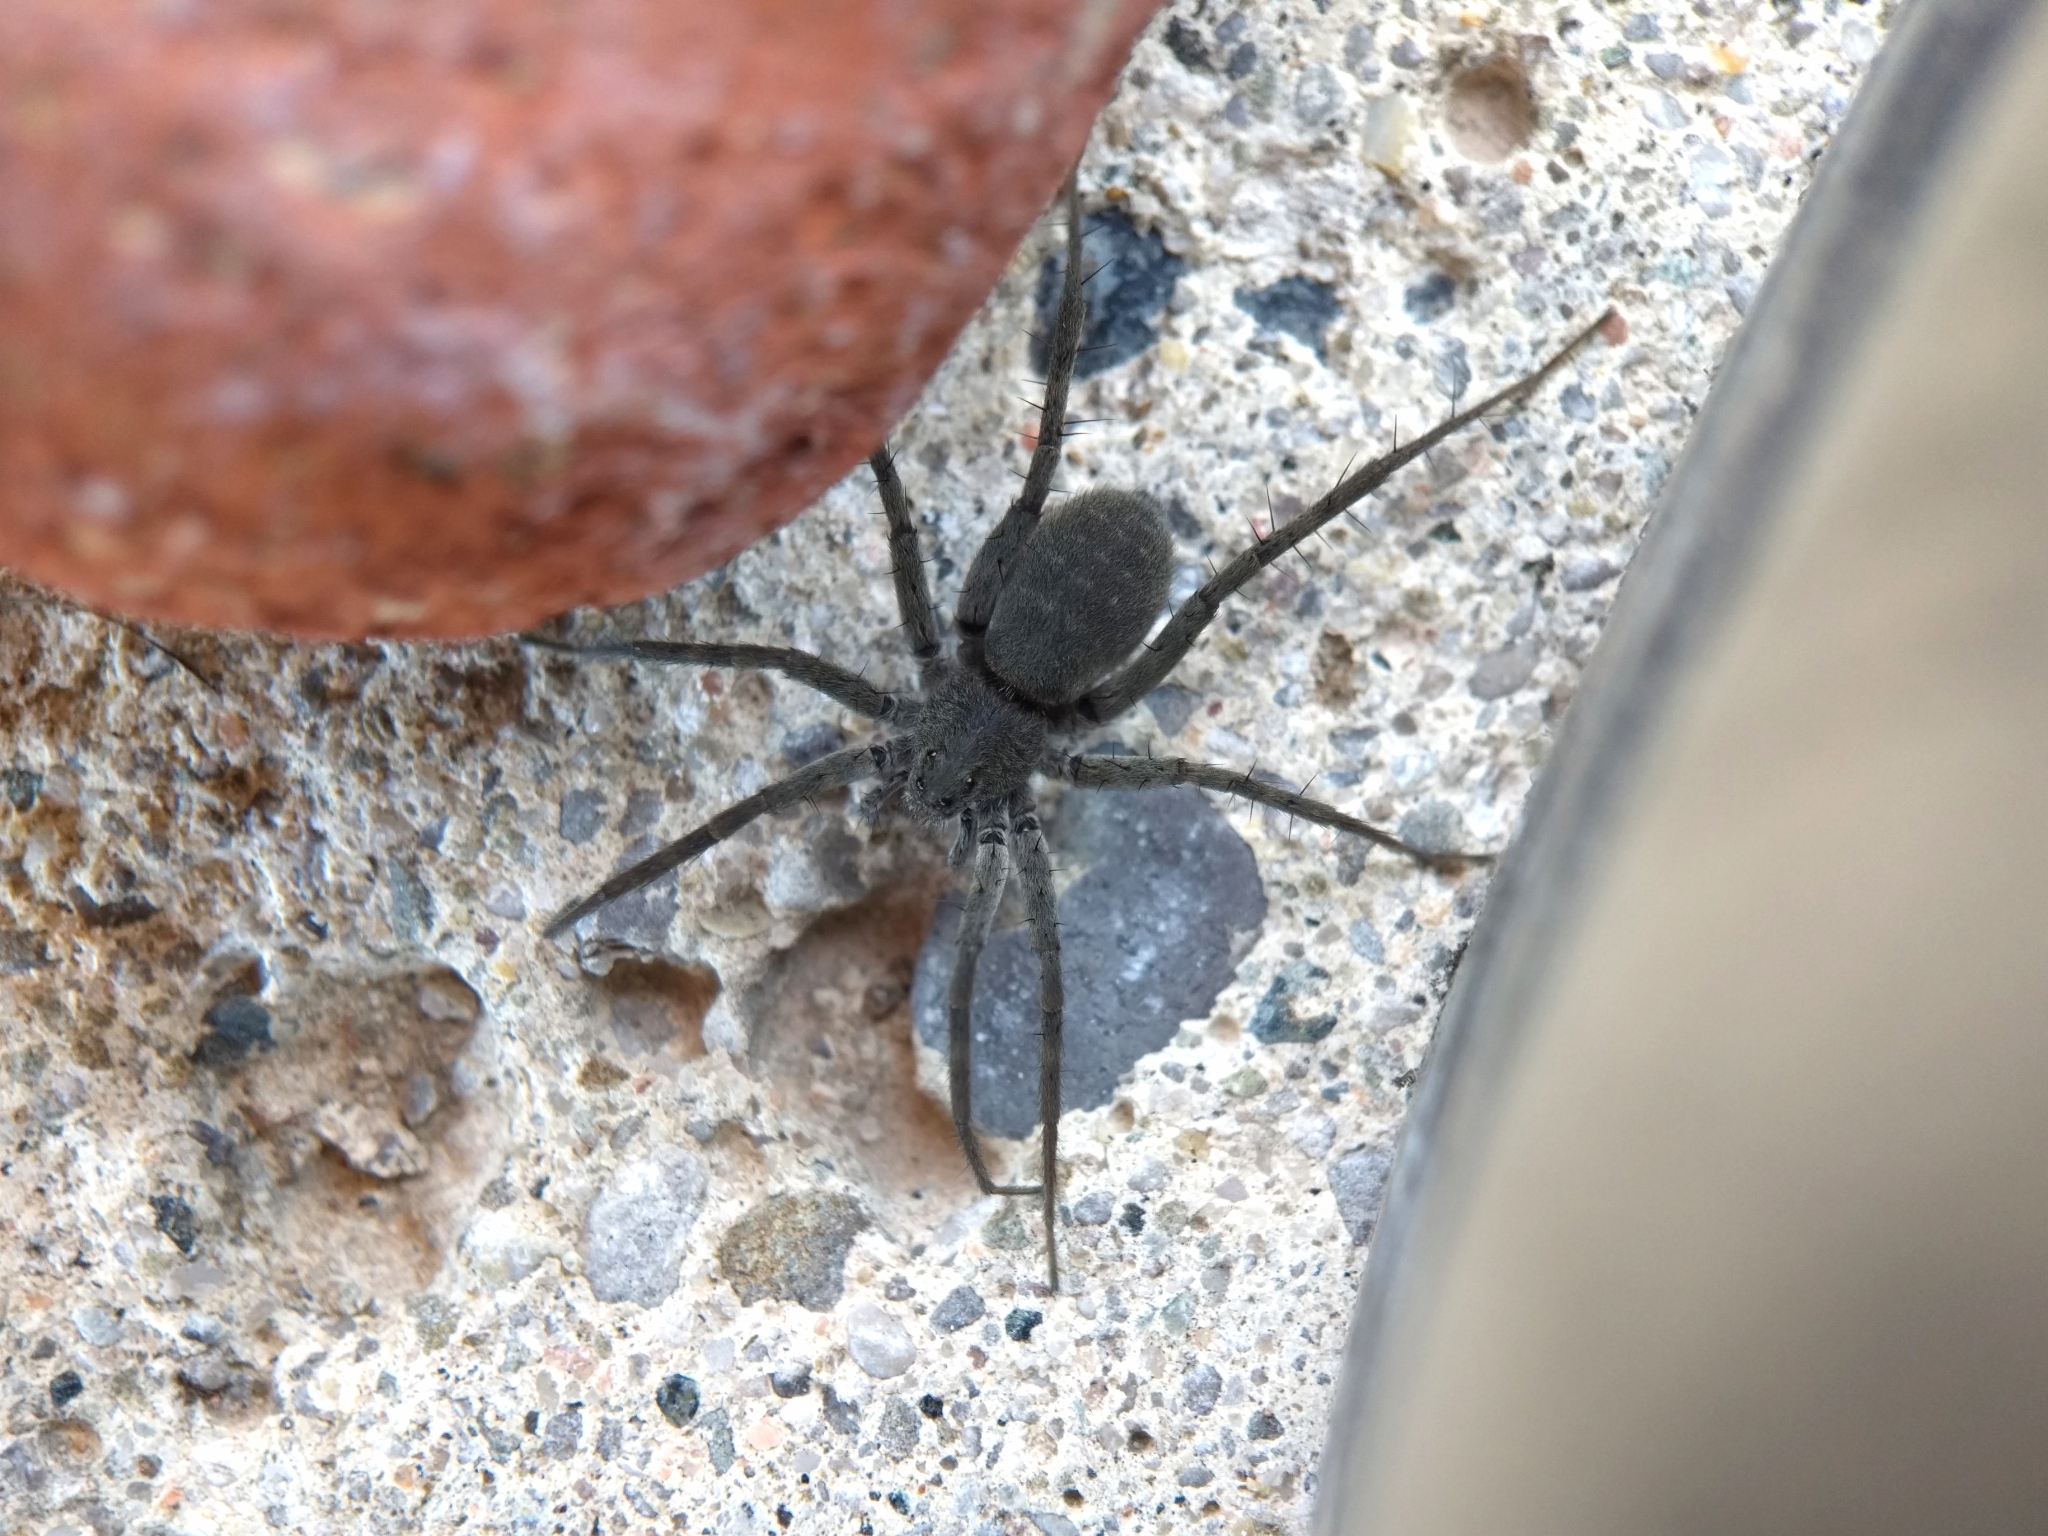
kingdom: Animalia
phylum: Arthropoda
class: Arachnida
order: Araneae
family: Lycosidae
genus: Pardosa
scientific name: Pardosa lapidicina
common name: Stone spider
